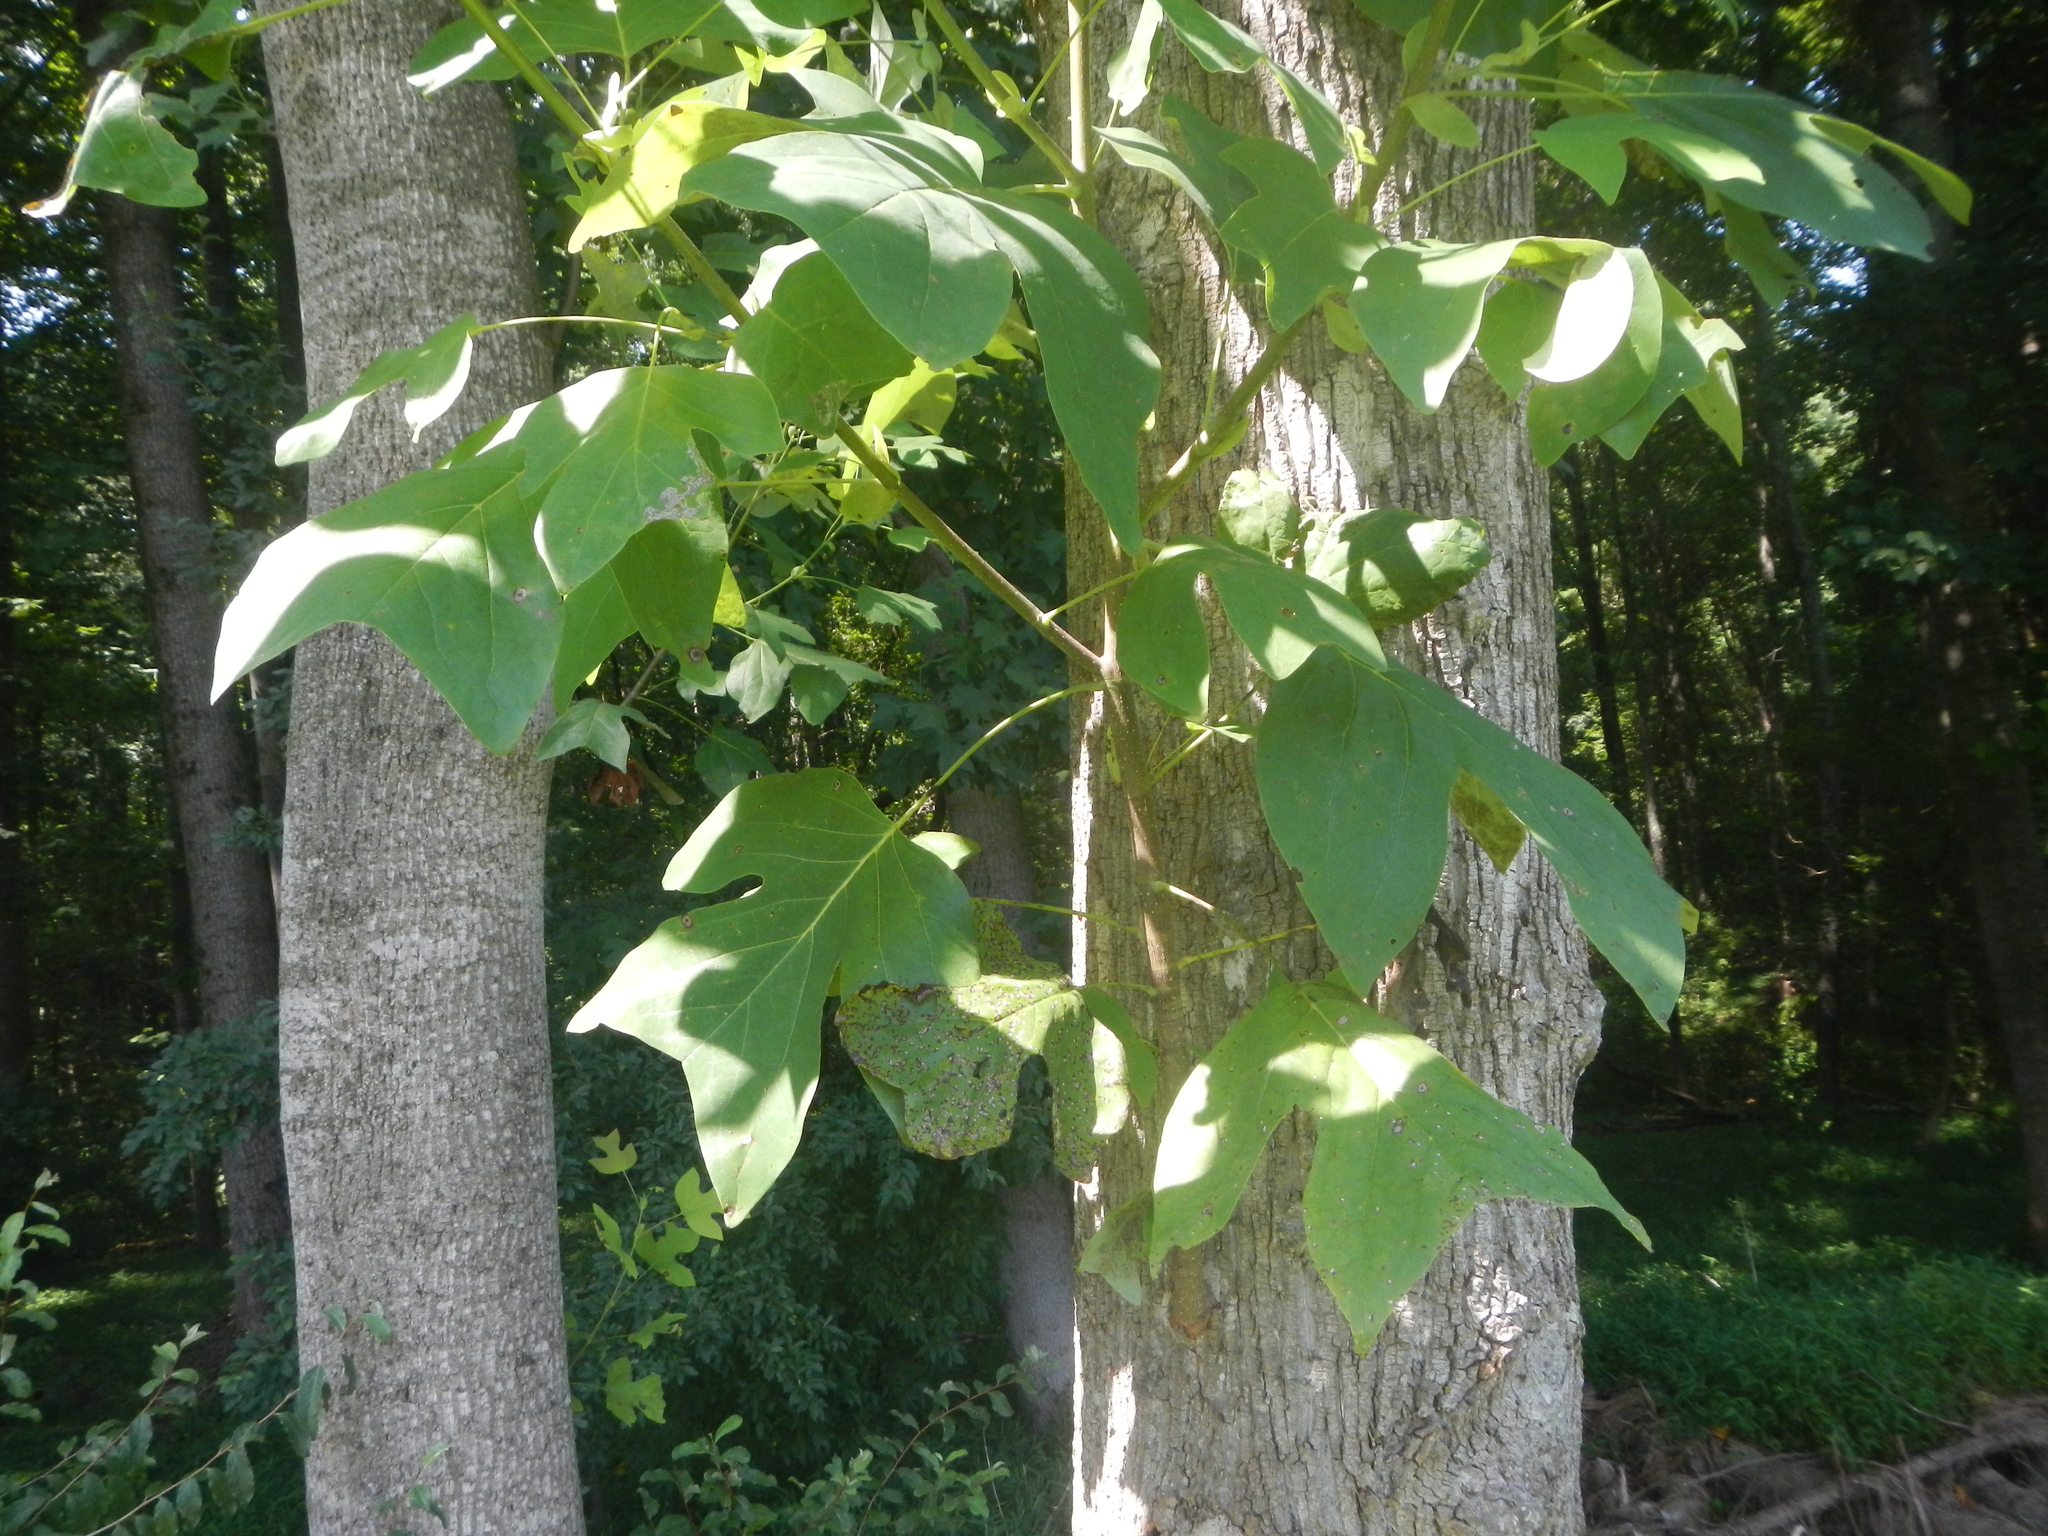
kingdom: Plantae
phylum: Tracheophyta
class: Magnoliopsida
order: Magnoliales
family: Magnoliaceae
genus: Liriodendron
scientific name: Liriodendron tulipifera
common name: Tulip tree
